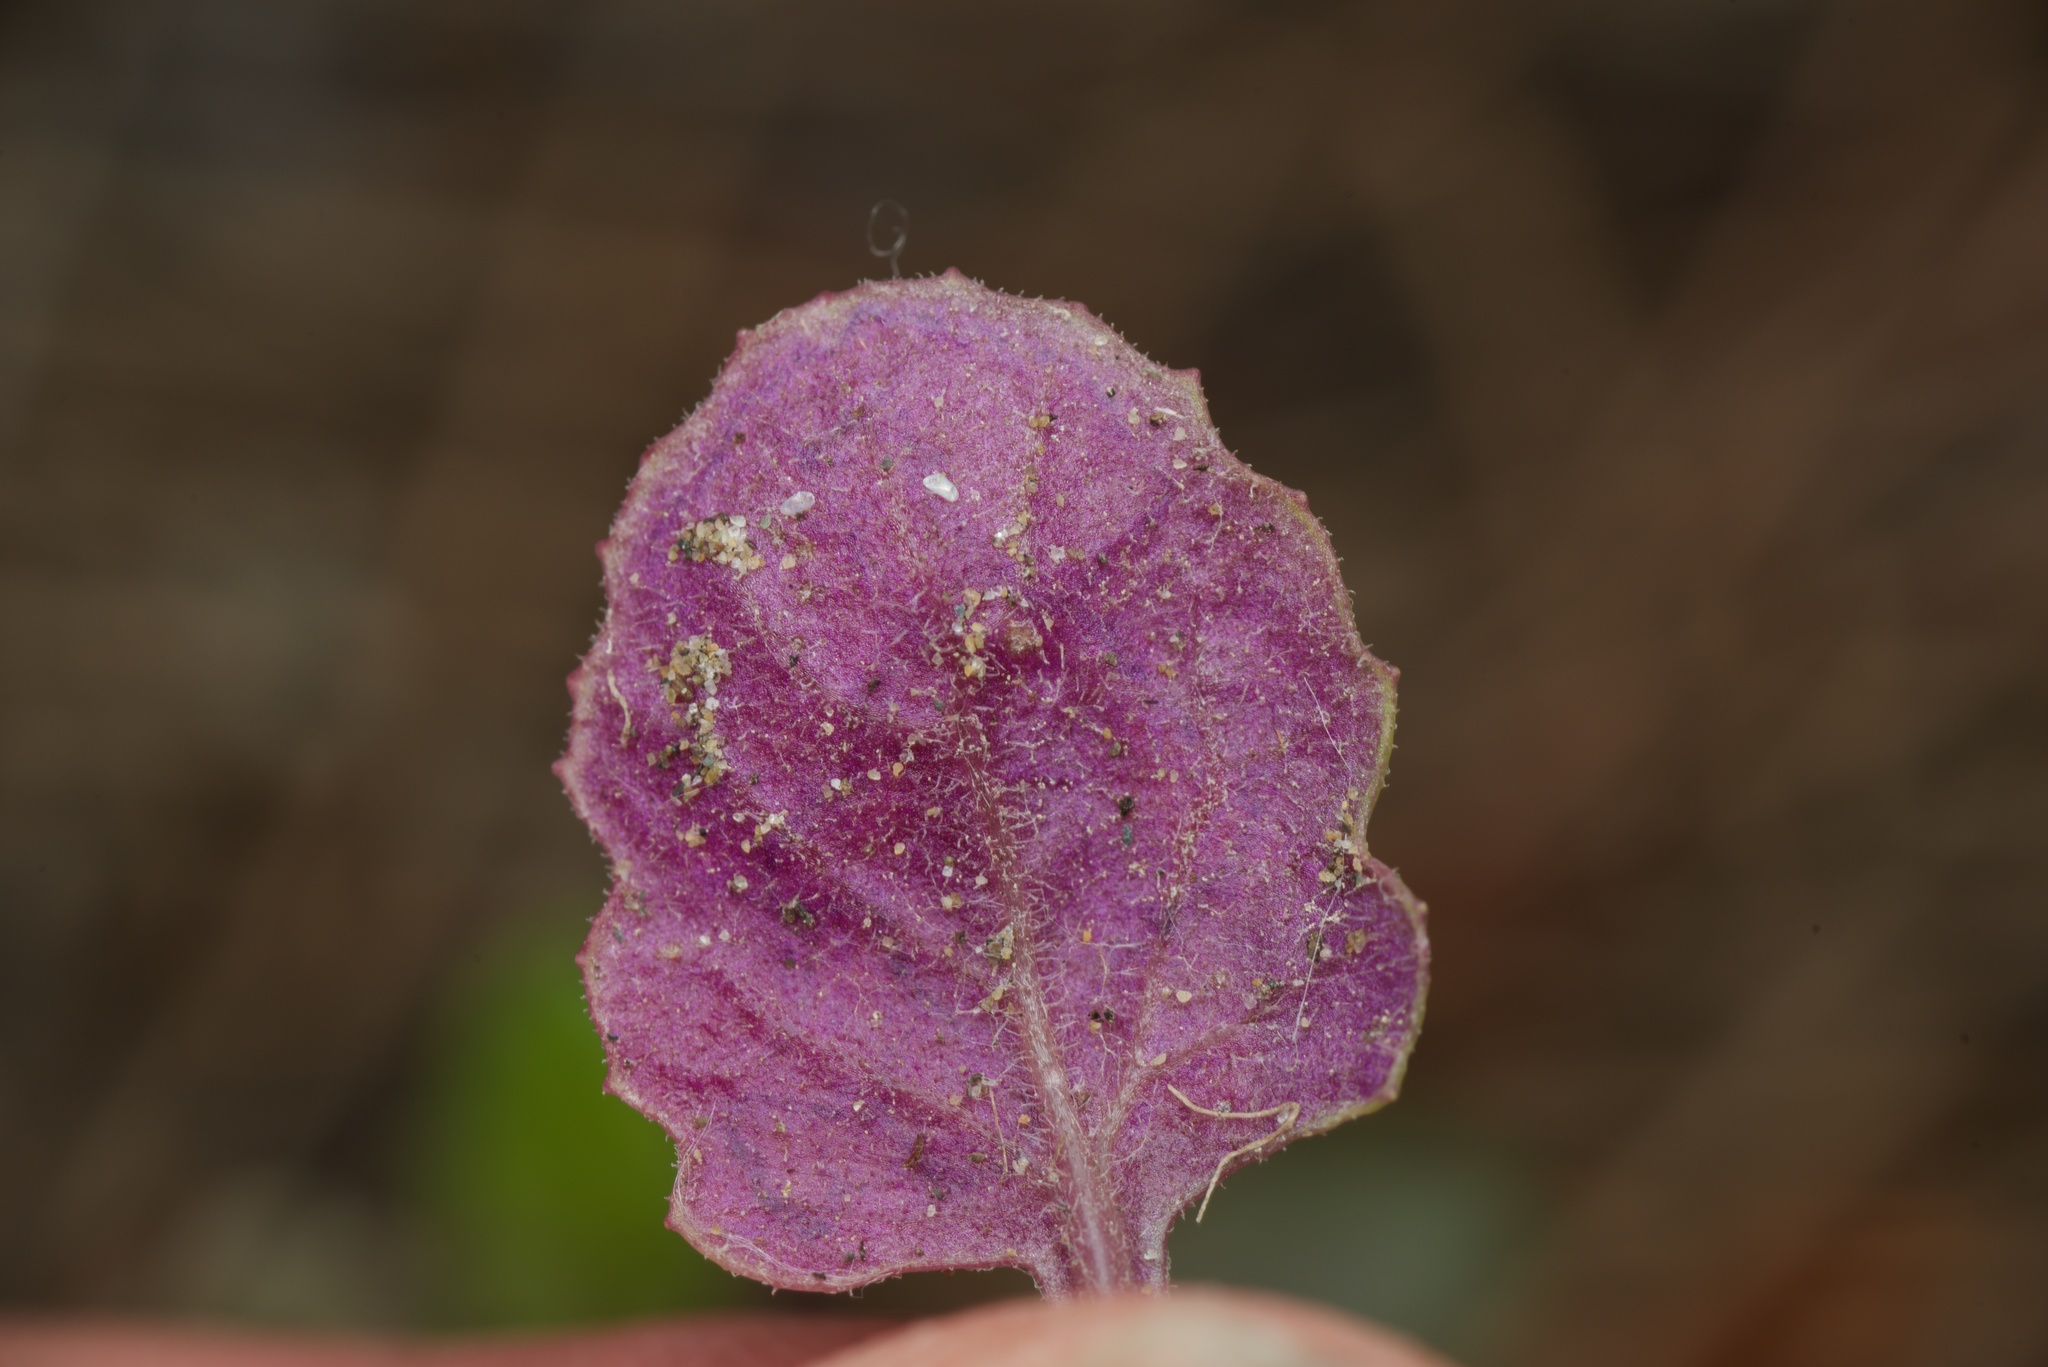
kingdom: Plantae
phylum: Tracheophyta
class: Magnoliopsida
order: Asterales
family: Asteraceae
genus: Senecio
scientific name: Senecio elegans
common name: Purple groundsel
